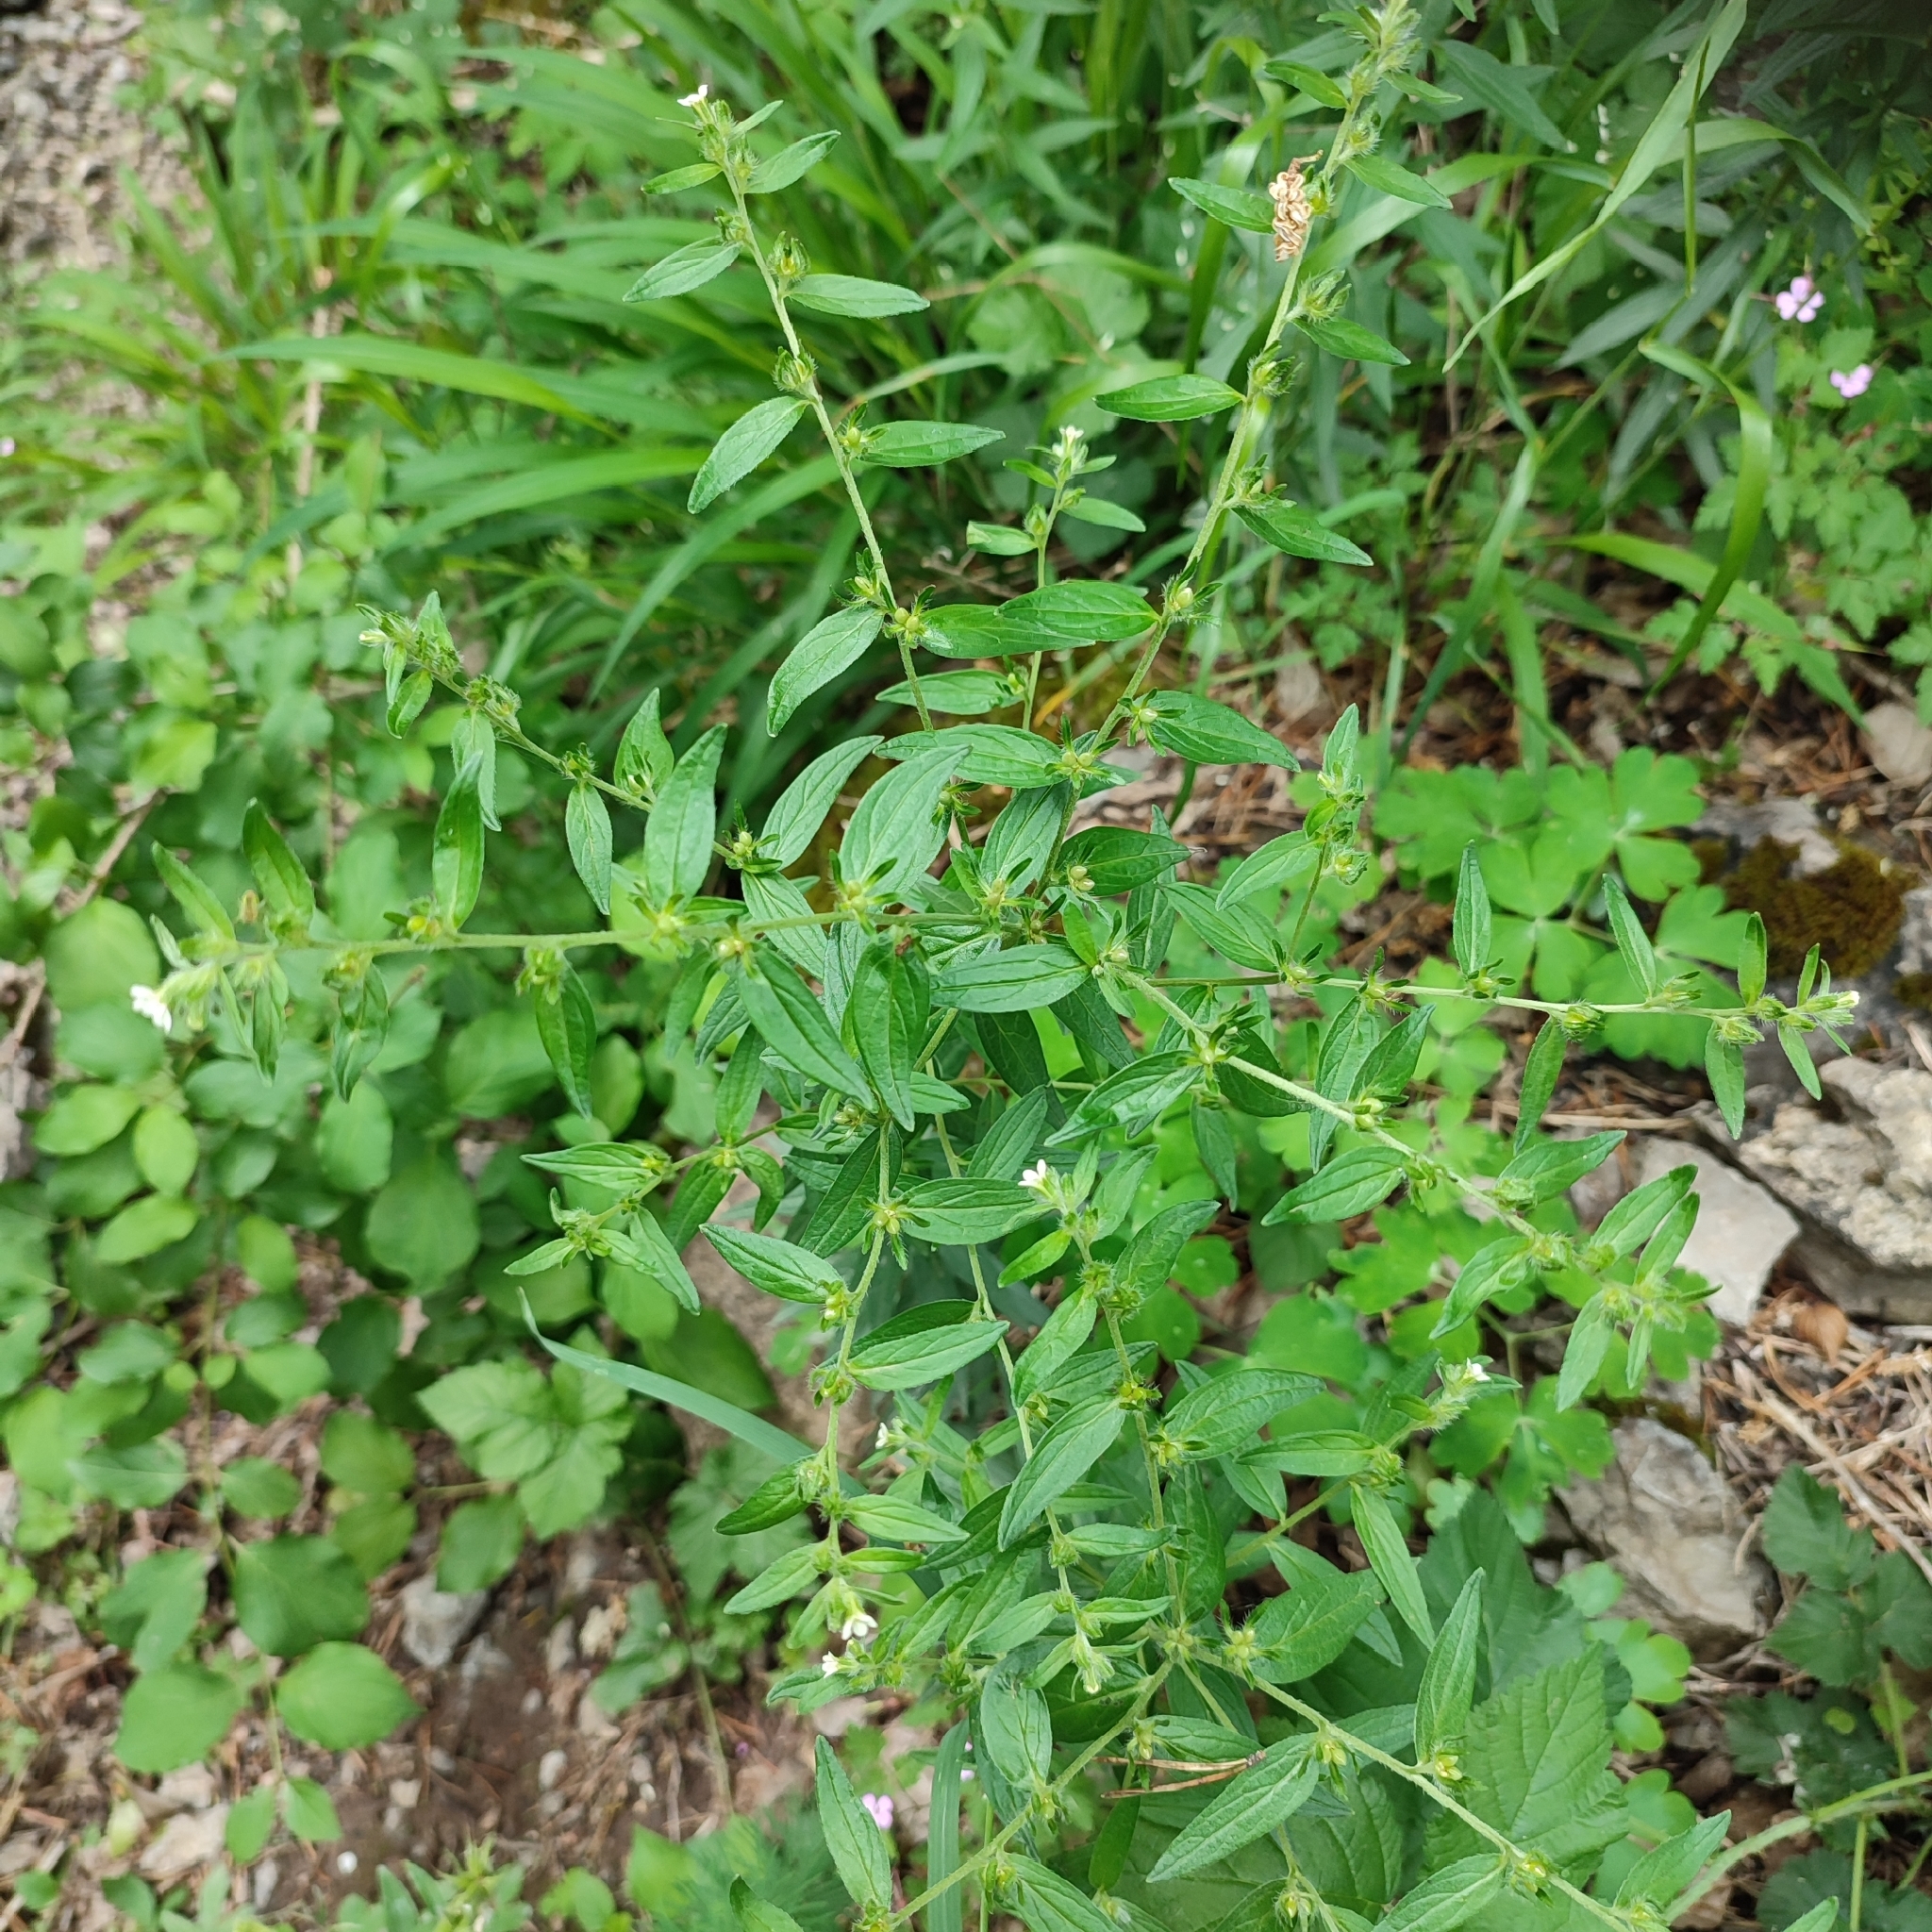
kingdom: Plantae
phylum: Tracheophyta
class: Magnoliopsida
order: Boraginales
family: Boraginaceae
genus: Lithospermum
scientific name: Lithospermum officinale
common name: Common gromwell
